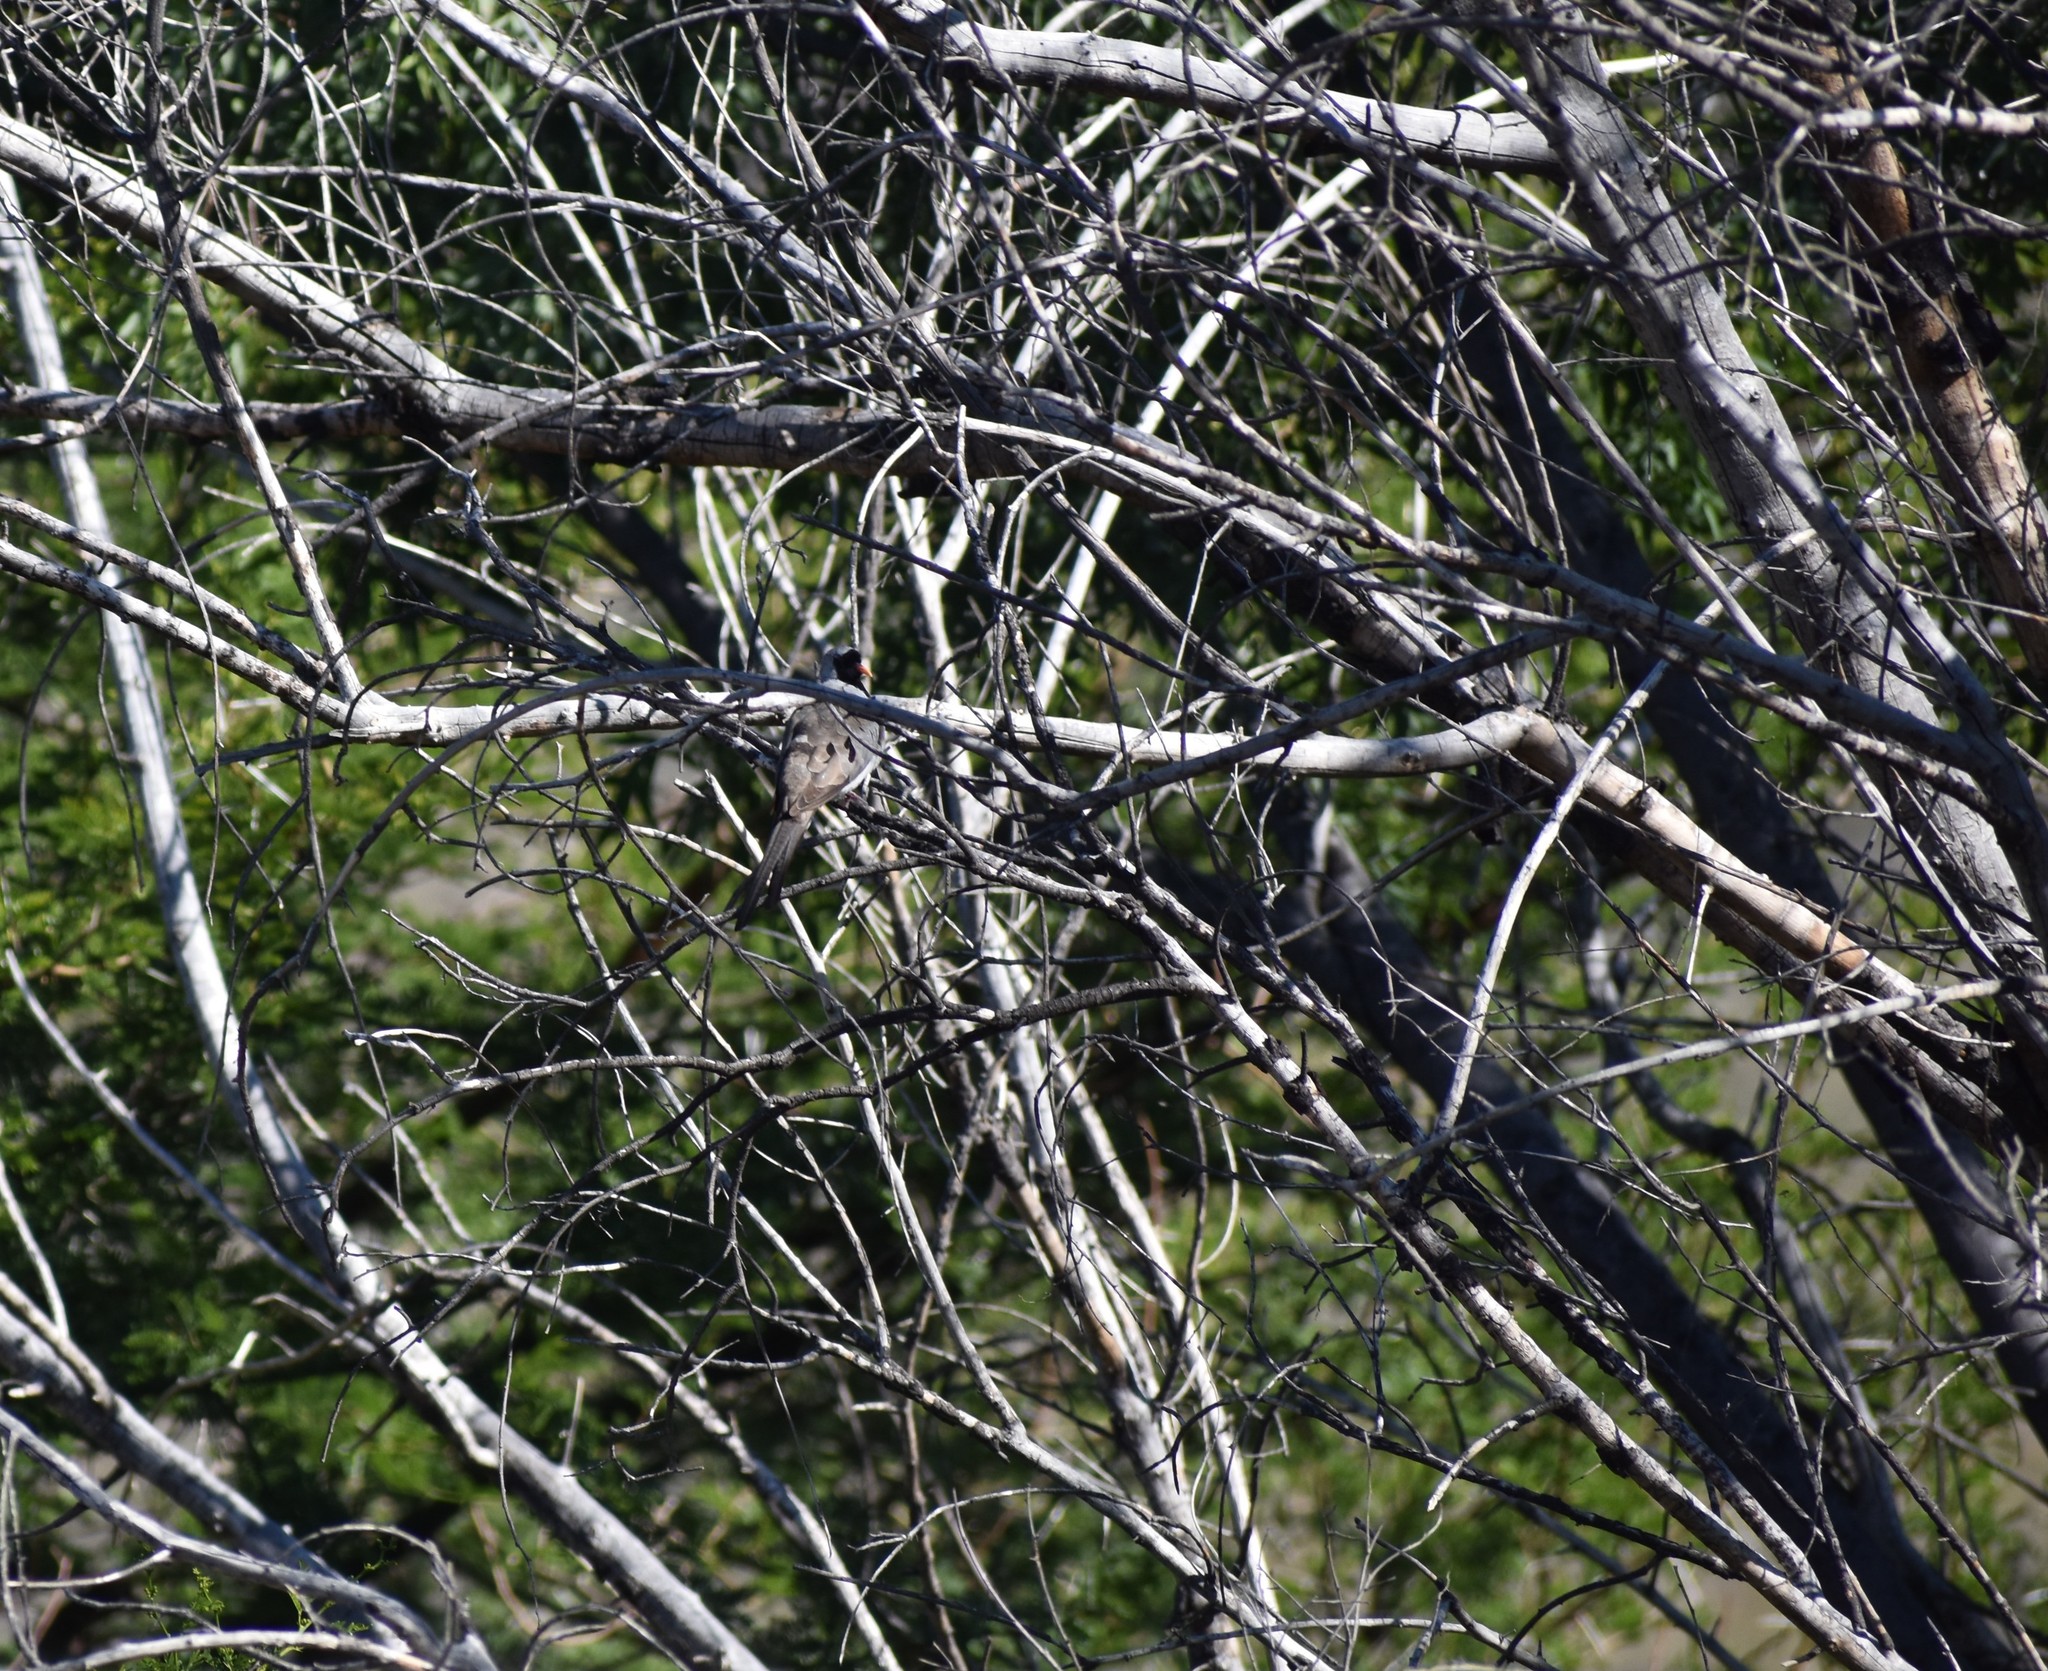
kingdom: Animalia
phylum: Chordata
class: Aves
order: Columbiformes
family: Columbidae
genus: Oena
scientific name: Oena capensis
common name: Namaqua dove
